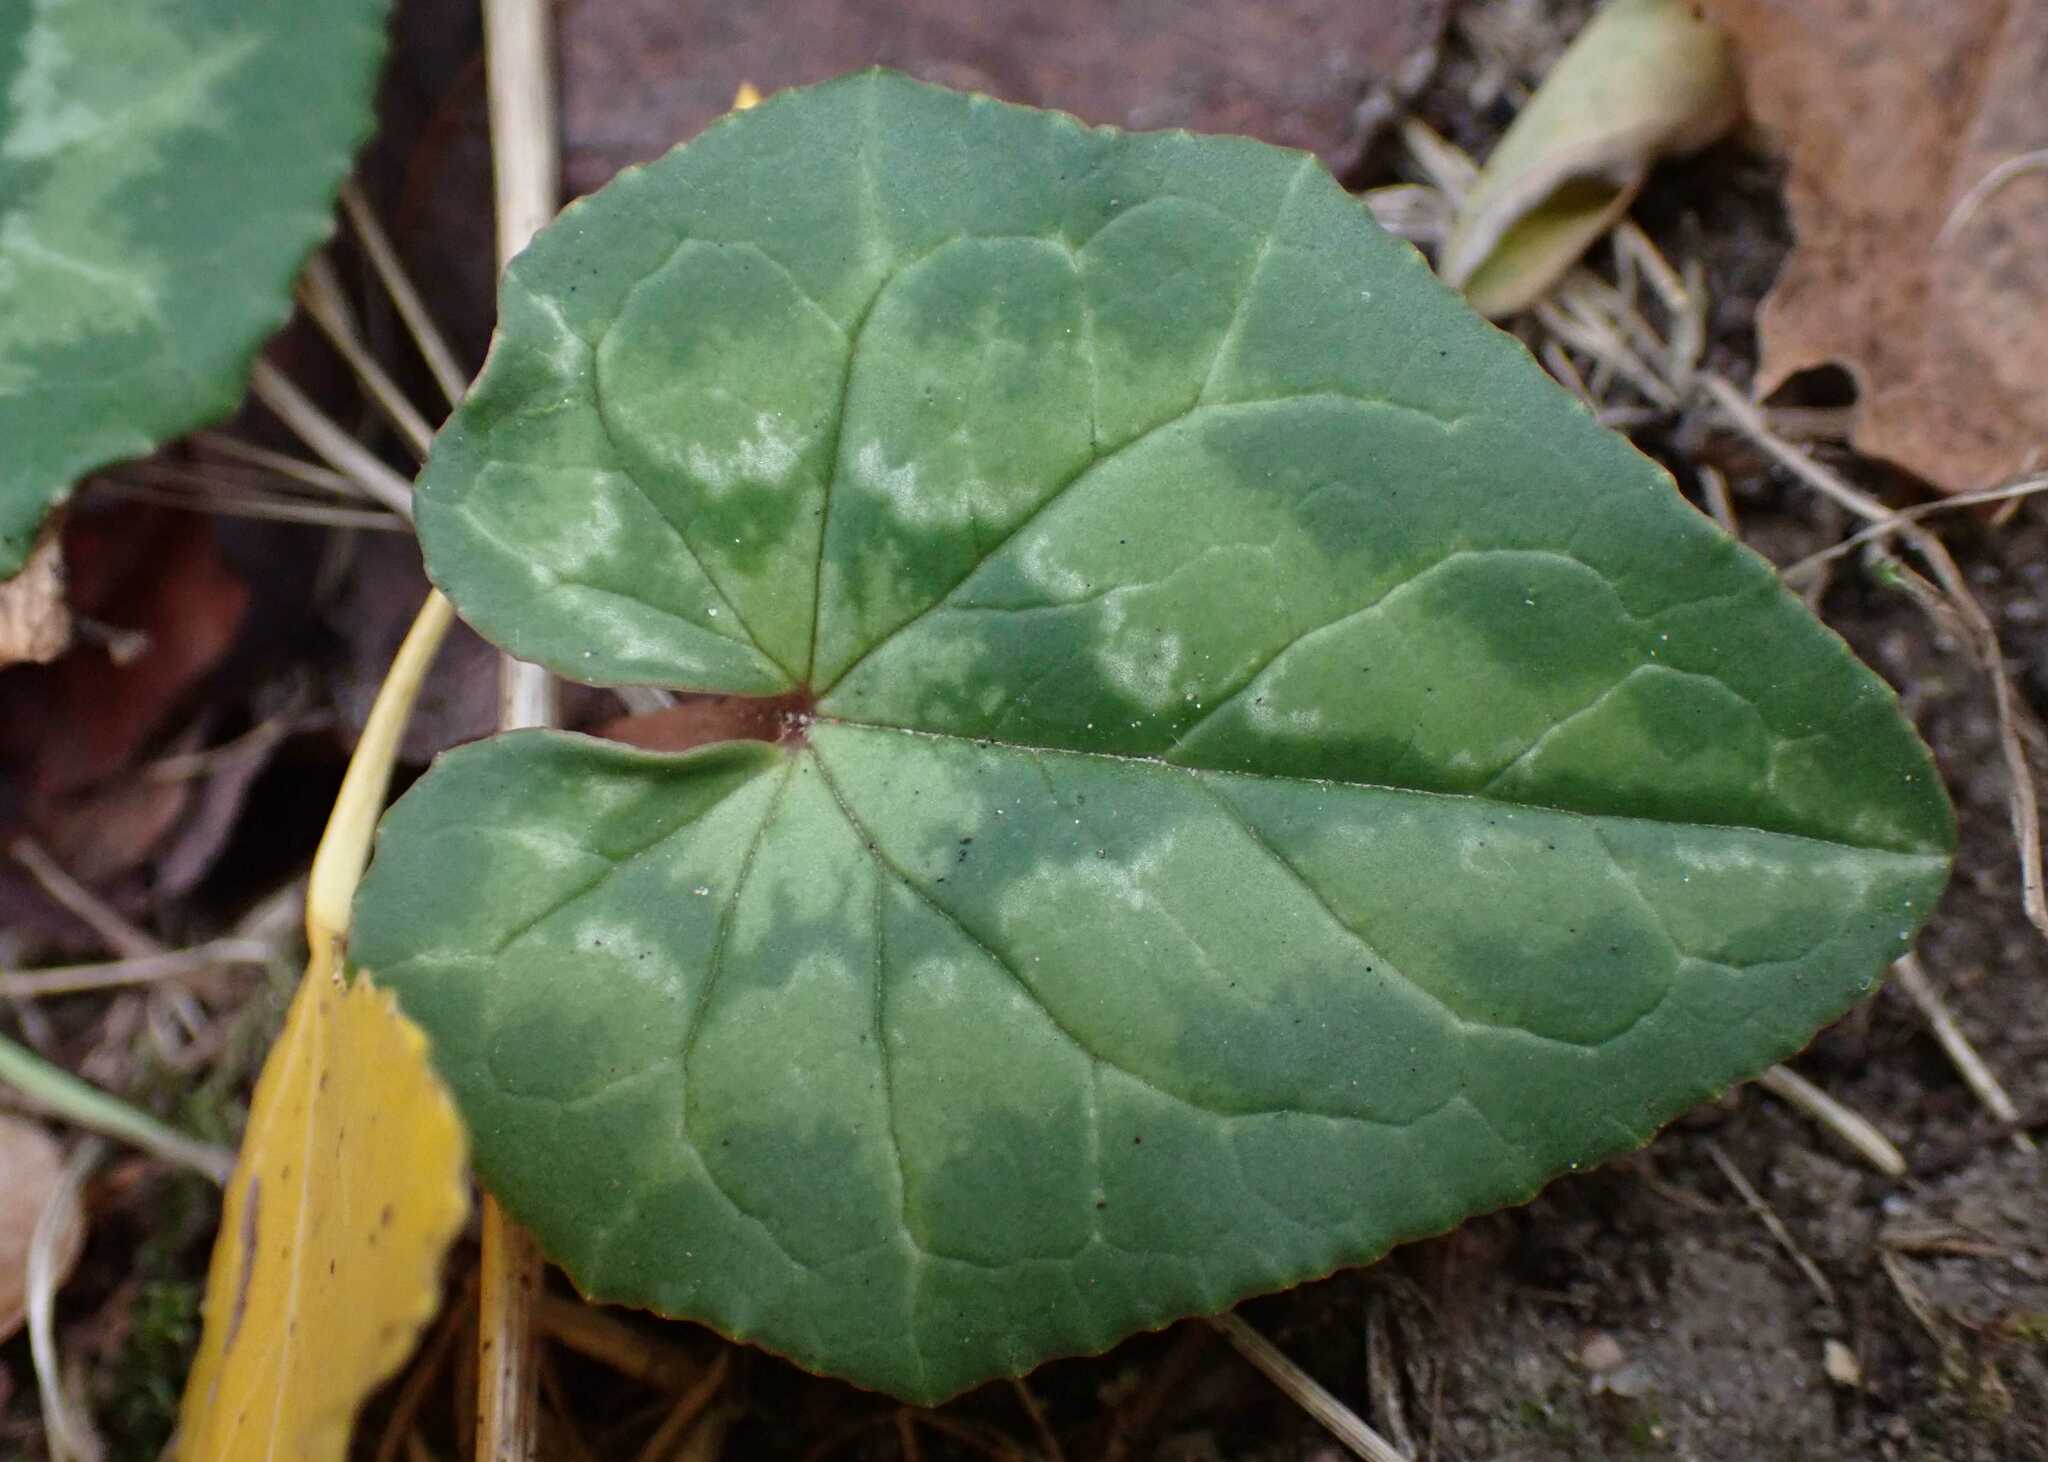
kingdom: Plantae
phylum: Tracheophyta
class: Magnoliopsida
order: Ericales
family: Primulaceae
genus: Cyclamen
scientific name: Cyclamen hederifolium
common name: Sowbread
